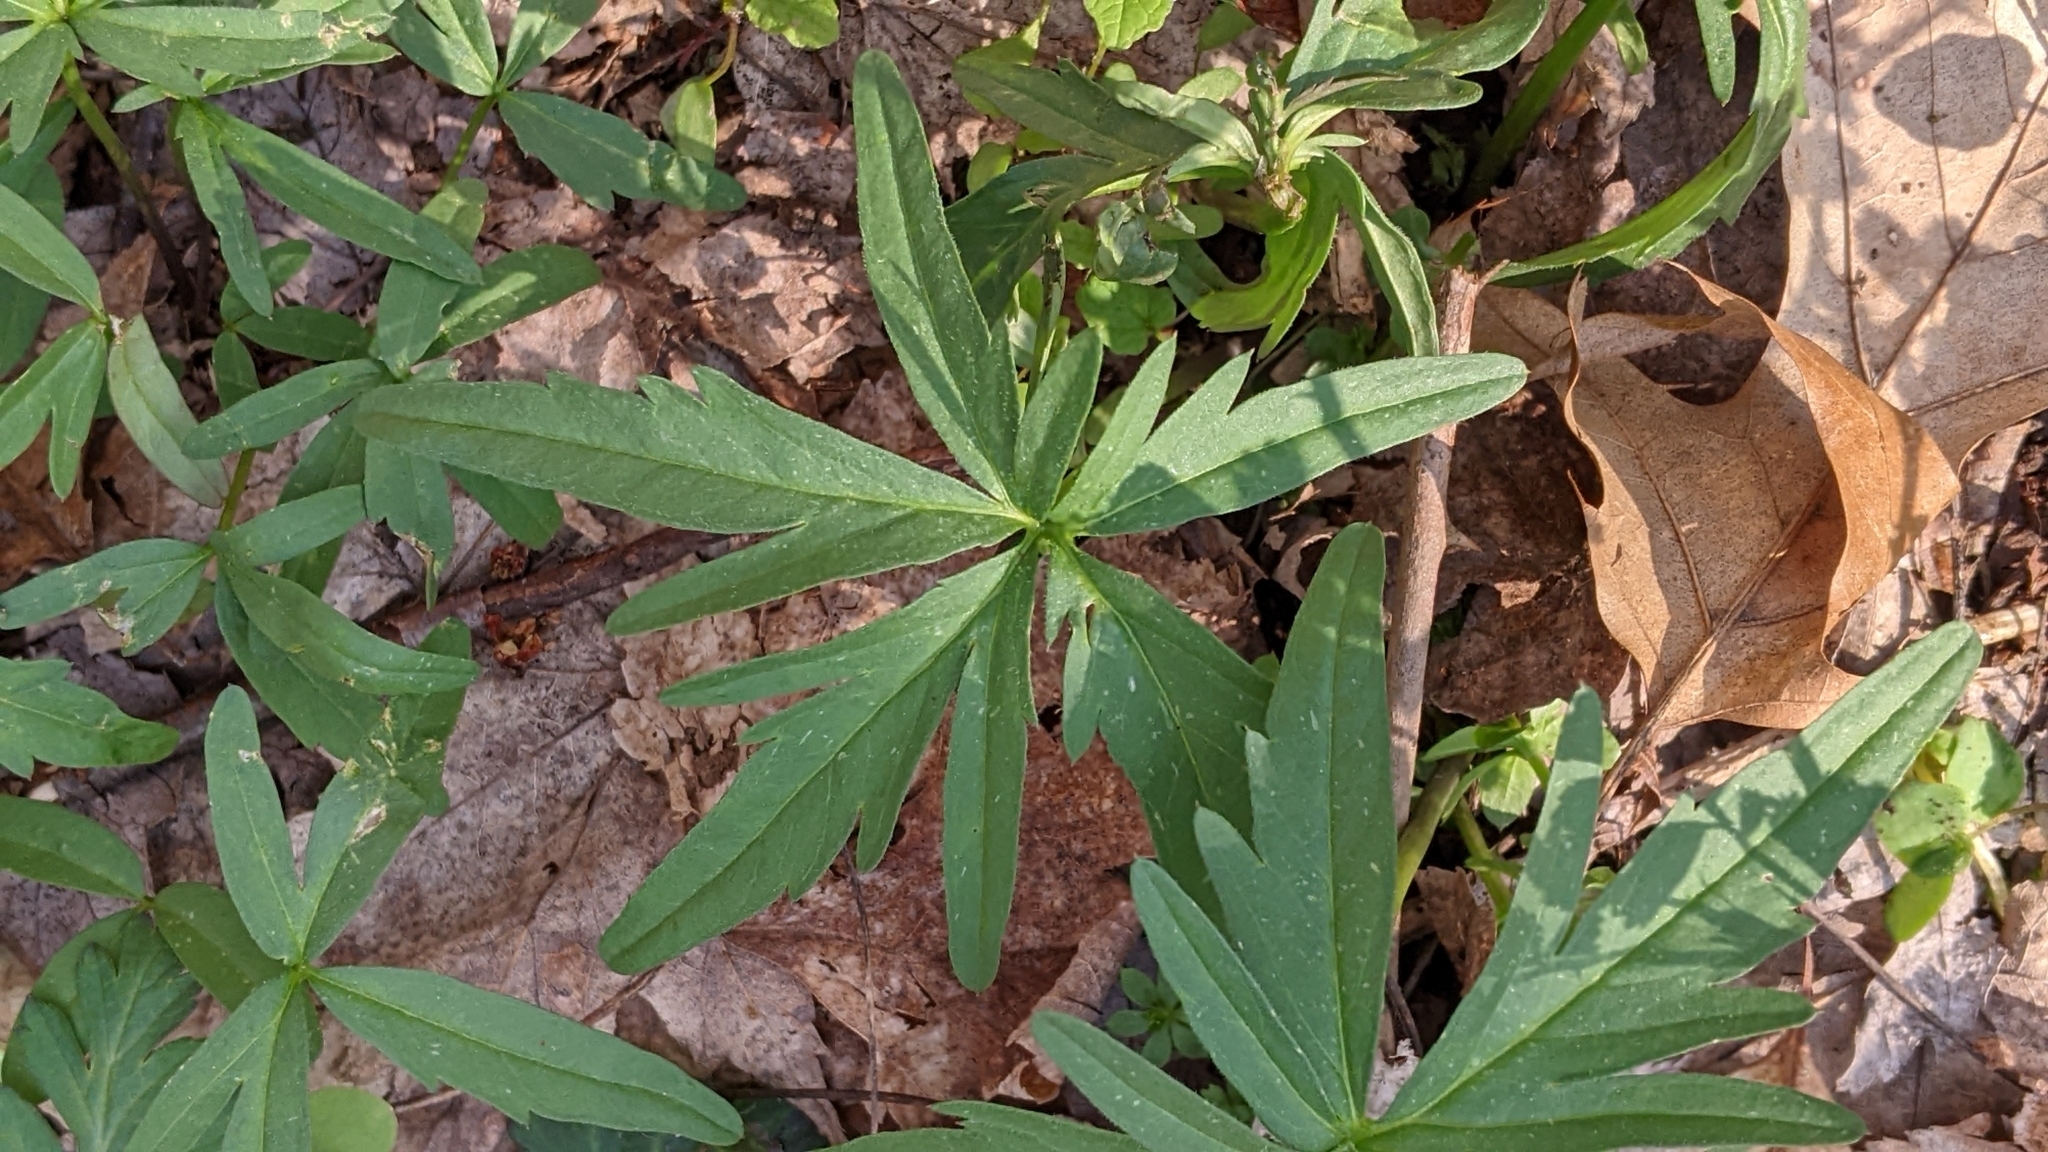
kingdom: Plantae
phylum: Tracheophyta
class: Magnoliopsida
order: Brassicales
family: Brassicaceae
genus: Cardamine
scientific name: Cardamine concatenata
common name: Cut-leaf toothcup
